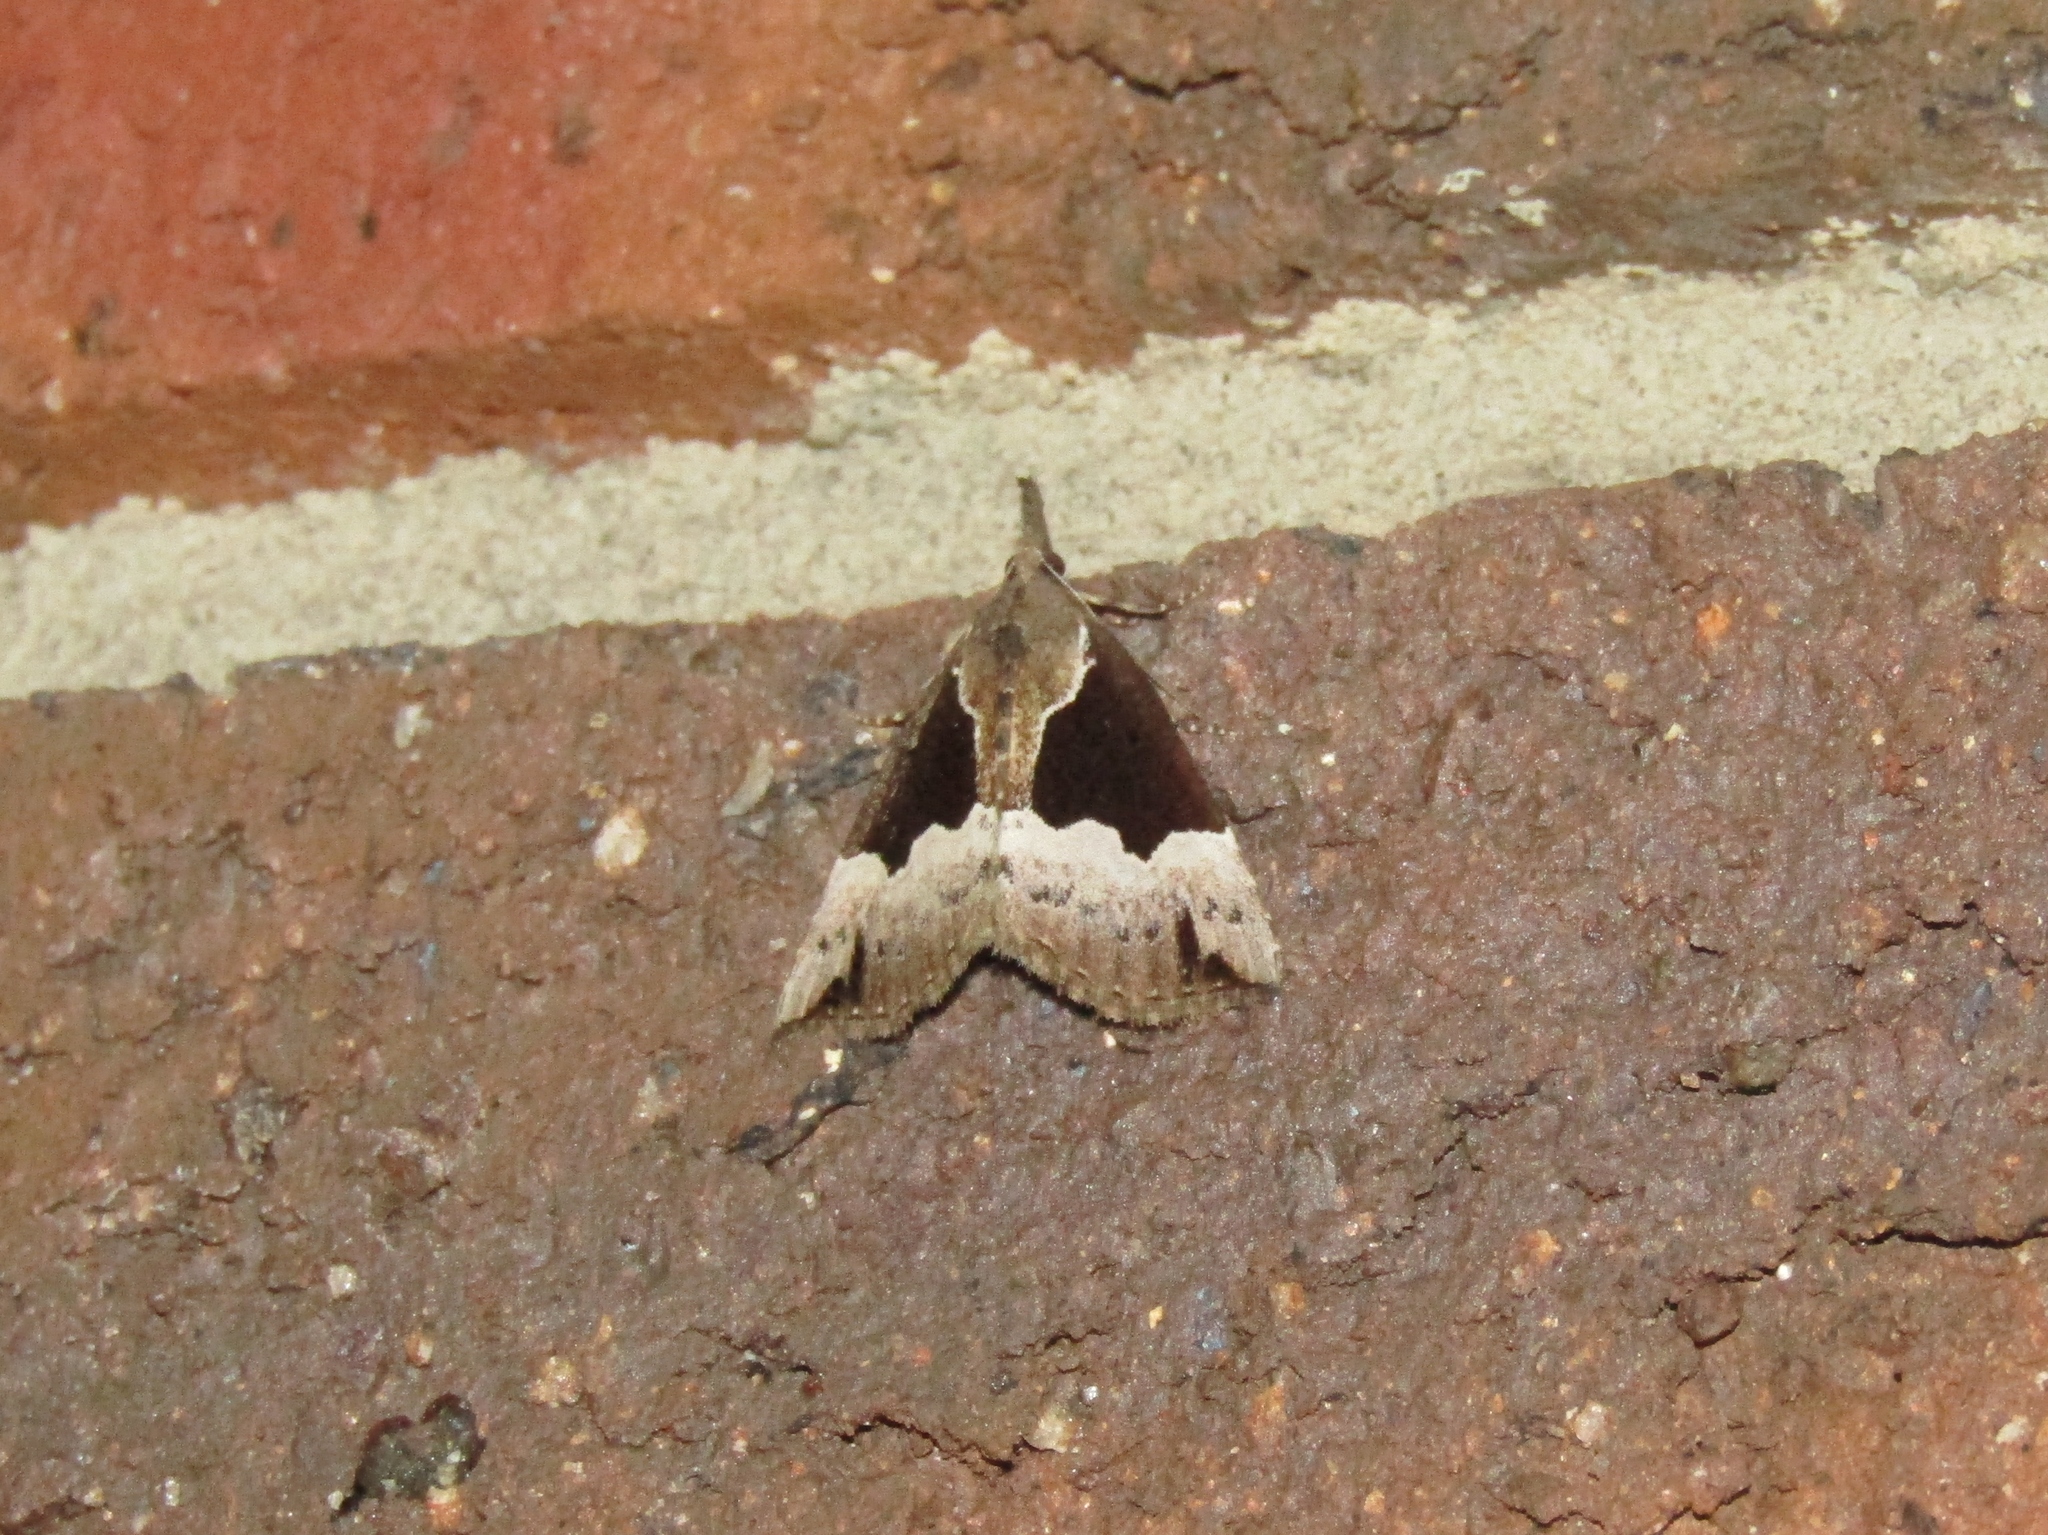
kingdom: Animalia
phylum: Arthropoda
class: Insecta
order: Lepidoptera
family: Erebidae
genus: Hypena
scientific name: Hypena baltimoralis
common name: Baltimore snout
